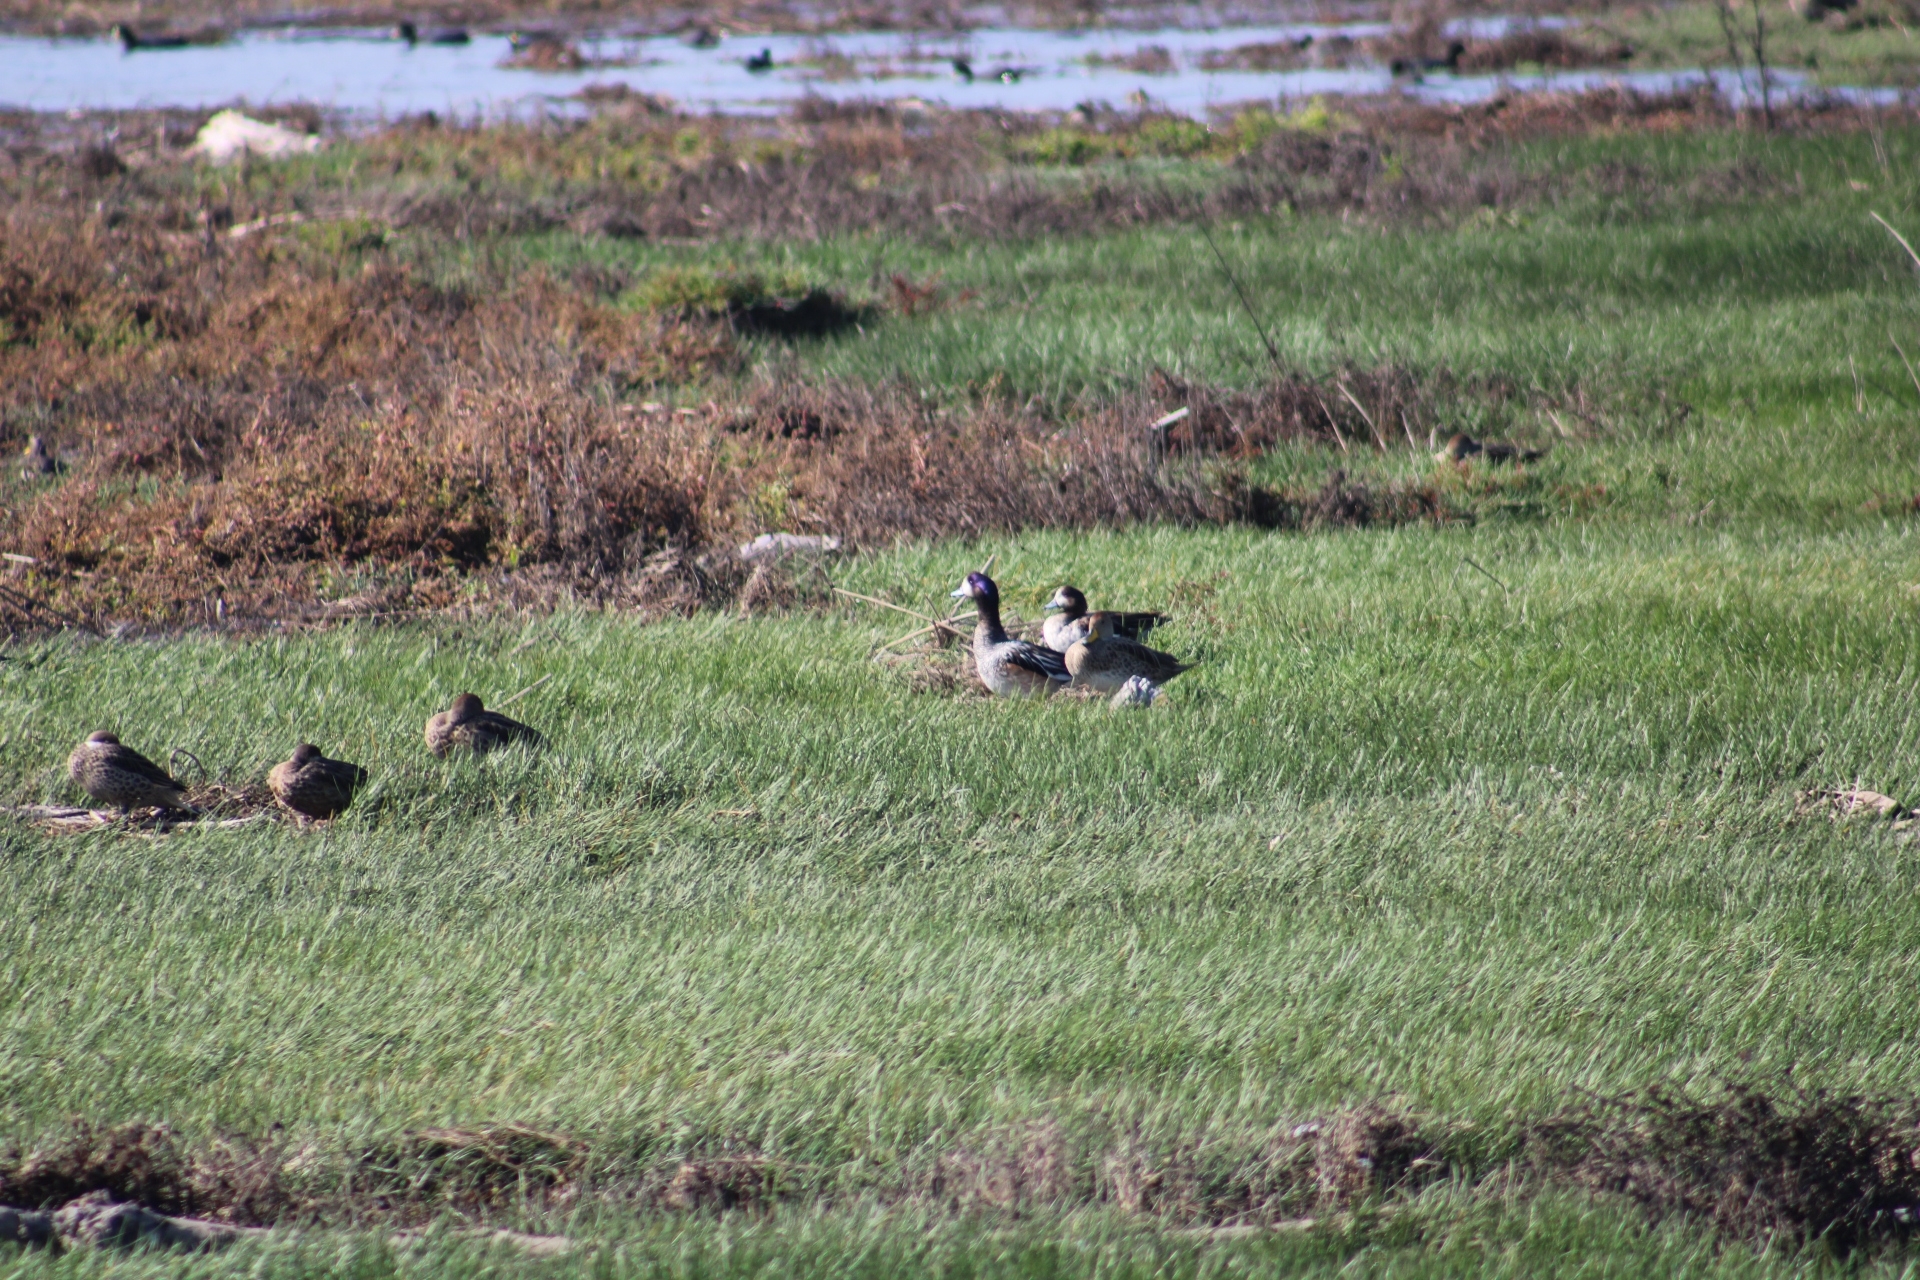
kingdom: Animalia
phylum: Chordata
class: Aves
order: Anseriformes
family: Anatidae
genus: Mareca
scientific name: Mareca sibilatrix
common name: Chiloe wigeon
